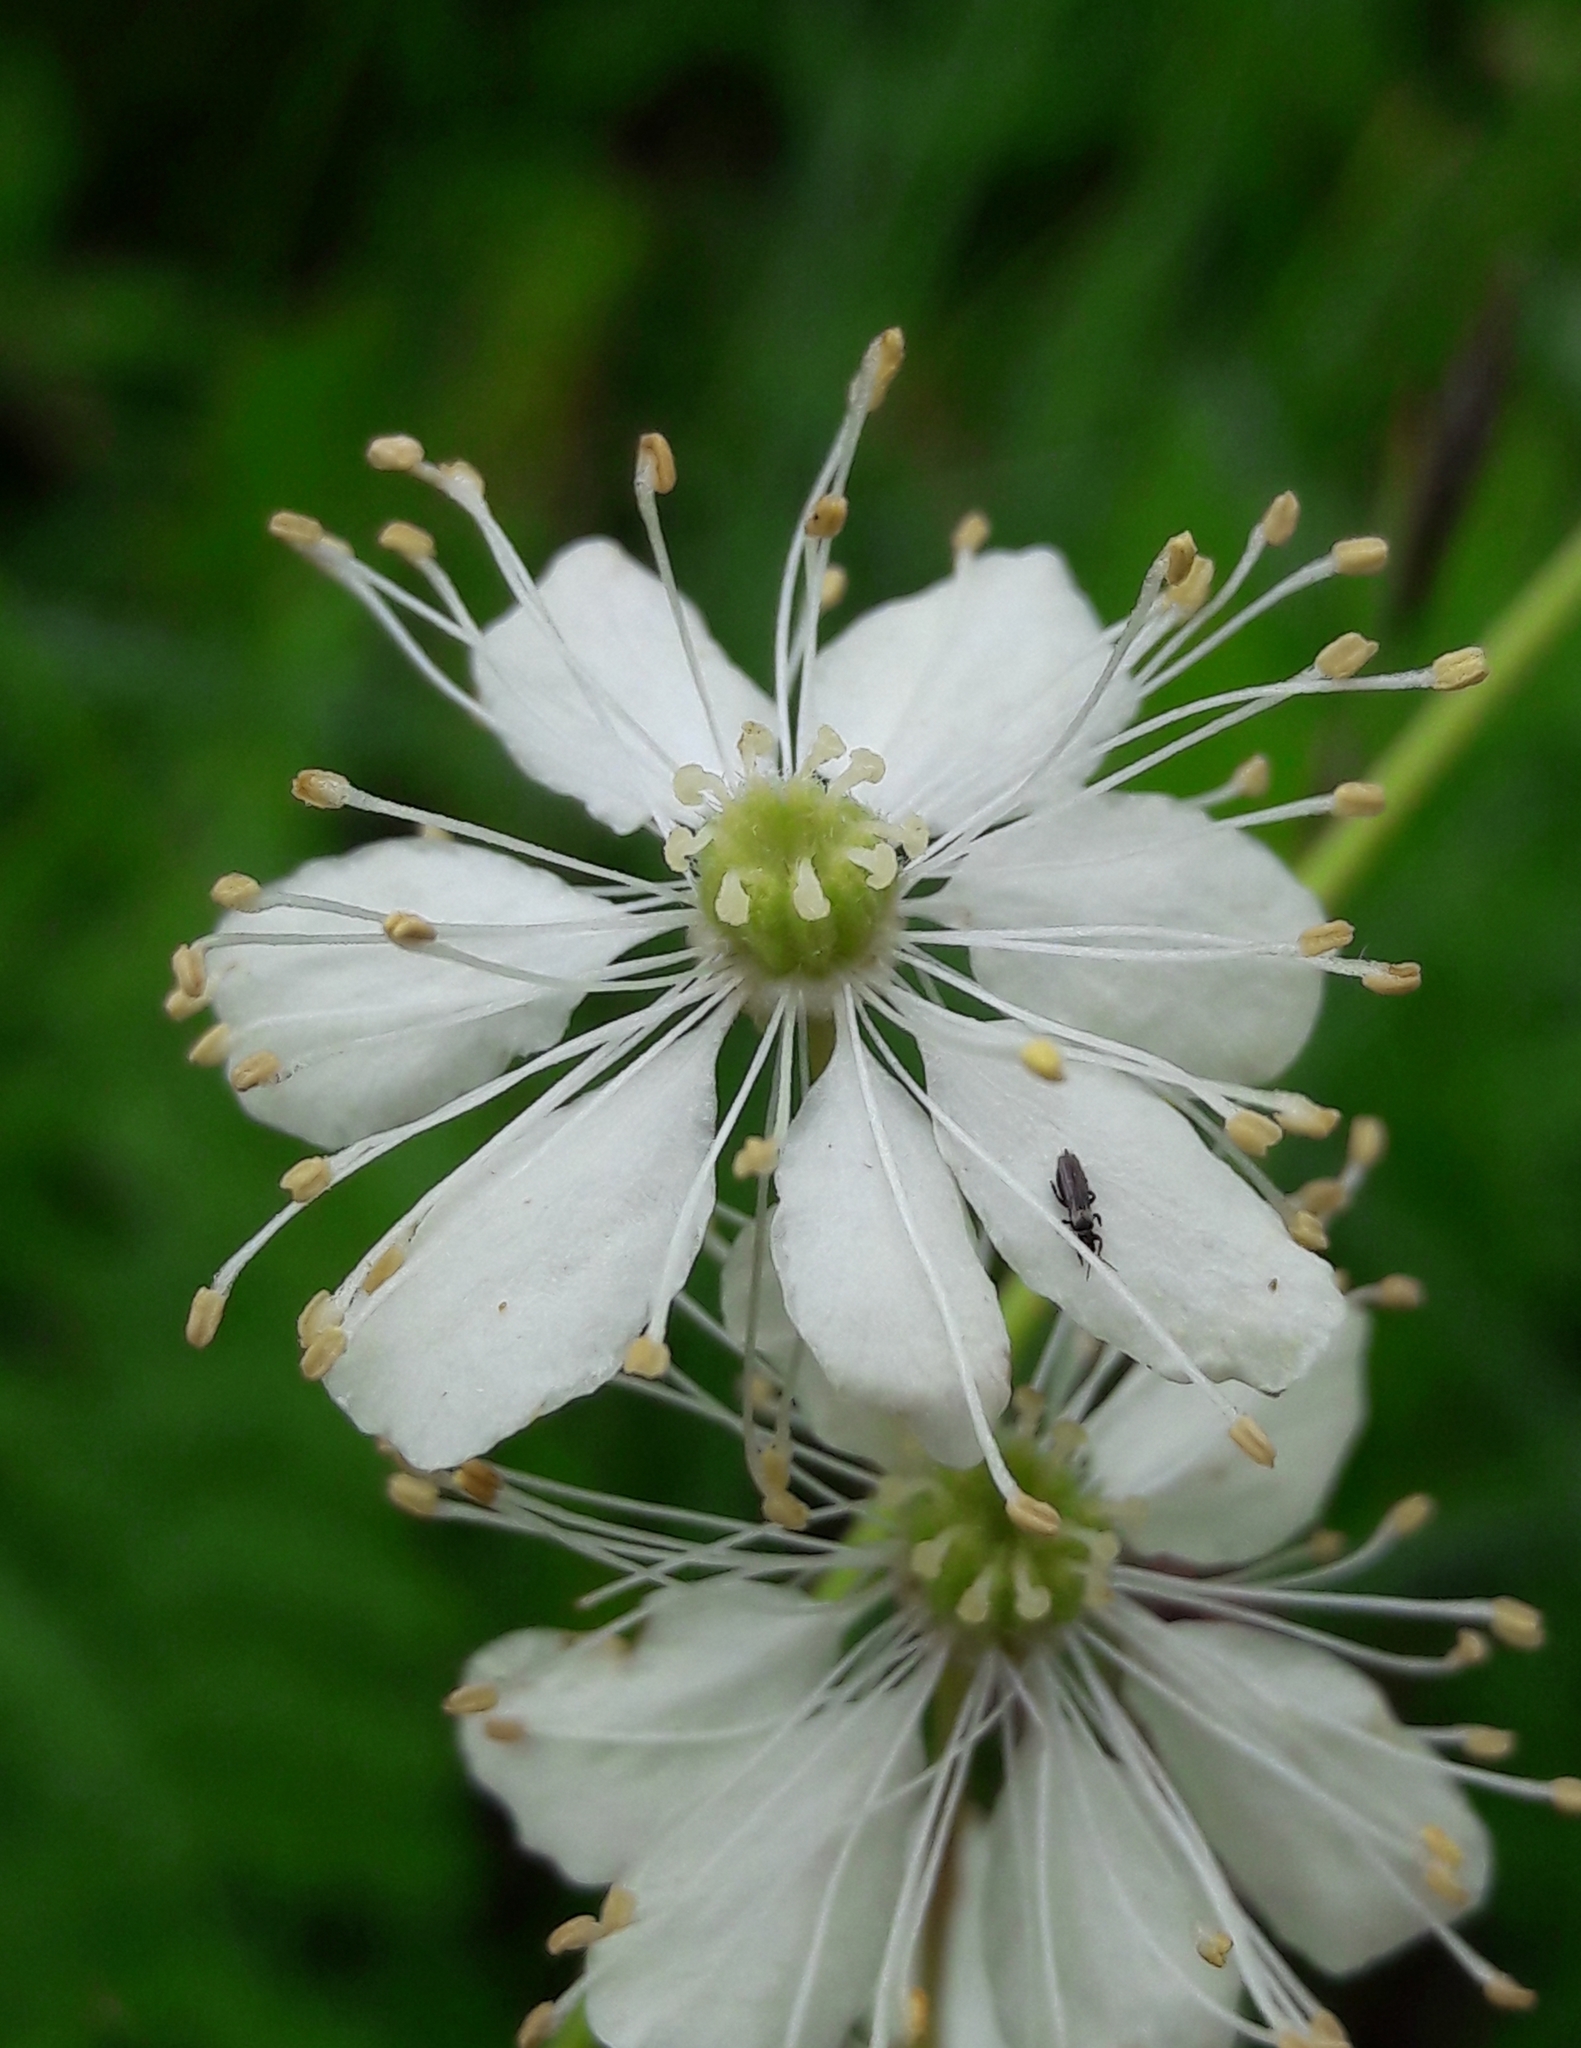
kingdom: Plantae
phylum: Tracheophyta
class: Magnoliopsida
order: Rosales
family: Rosaceae
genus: Filipendula
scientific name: Filipendula vulgaris
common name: Dropwort
